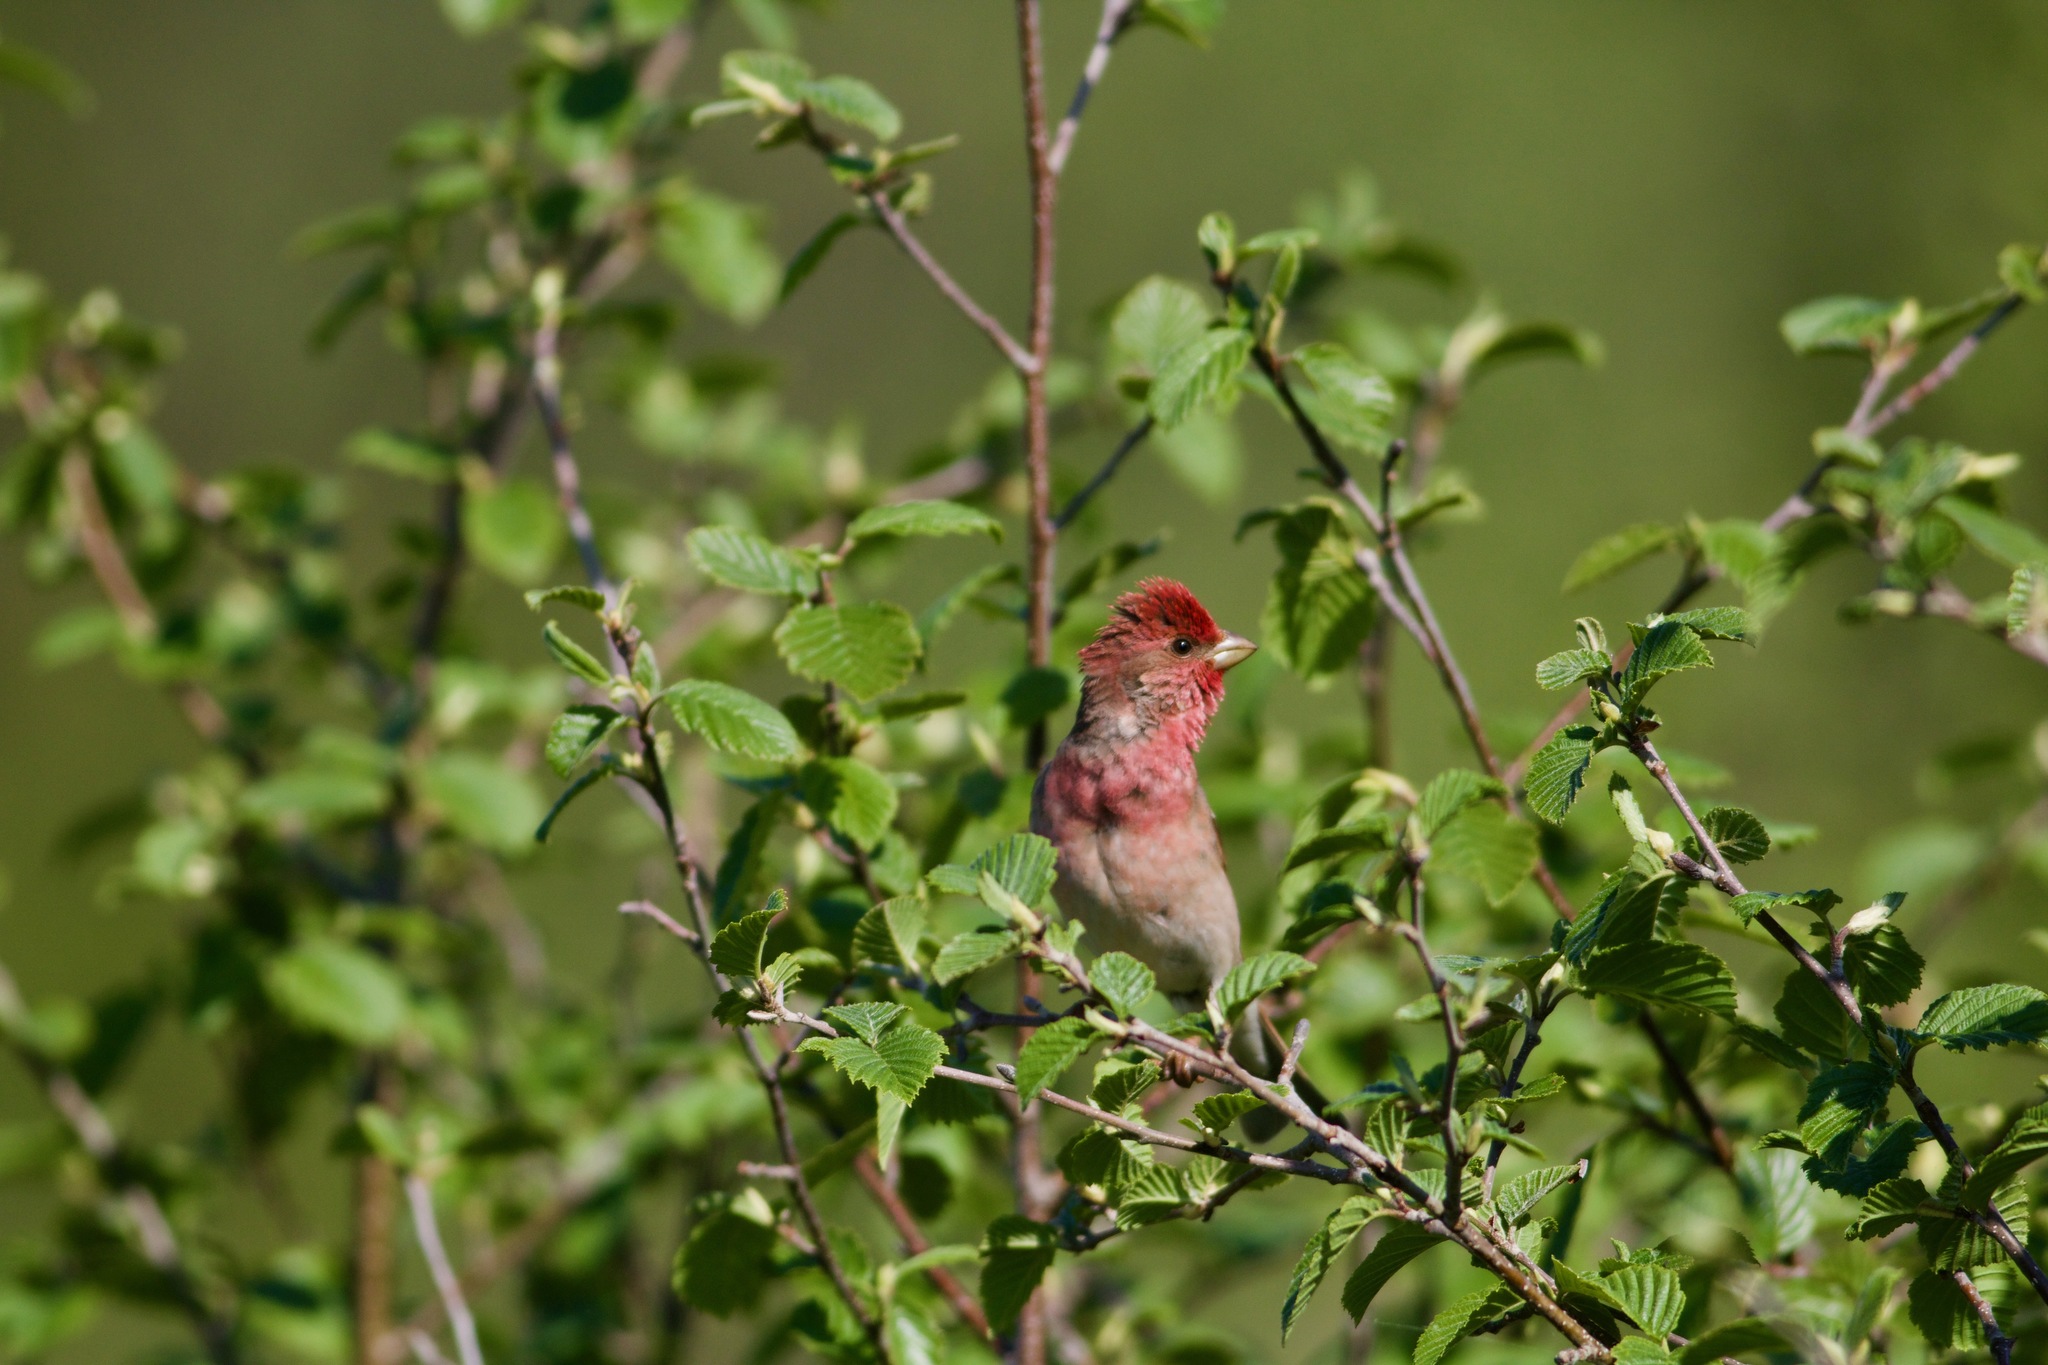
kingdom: Animalia
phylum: Chordata
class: Aves
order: Passeriformes
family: Fringillidae
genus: Carpodacus
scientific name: Carpodacus erythrinus
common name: Common rosefinch
